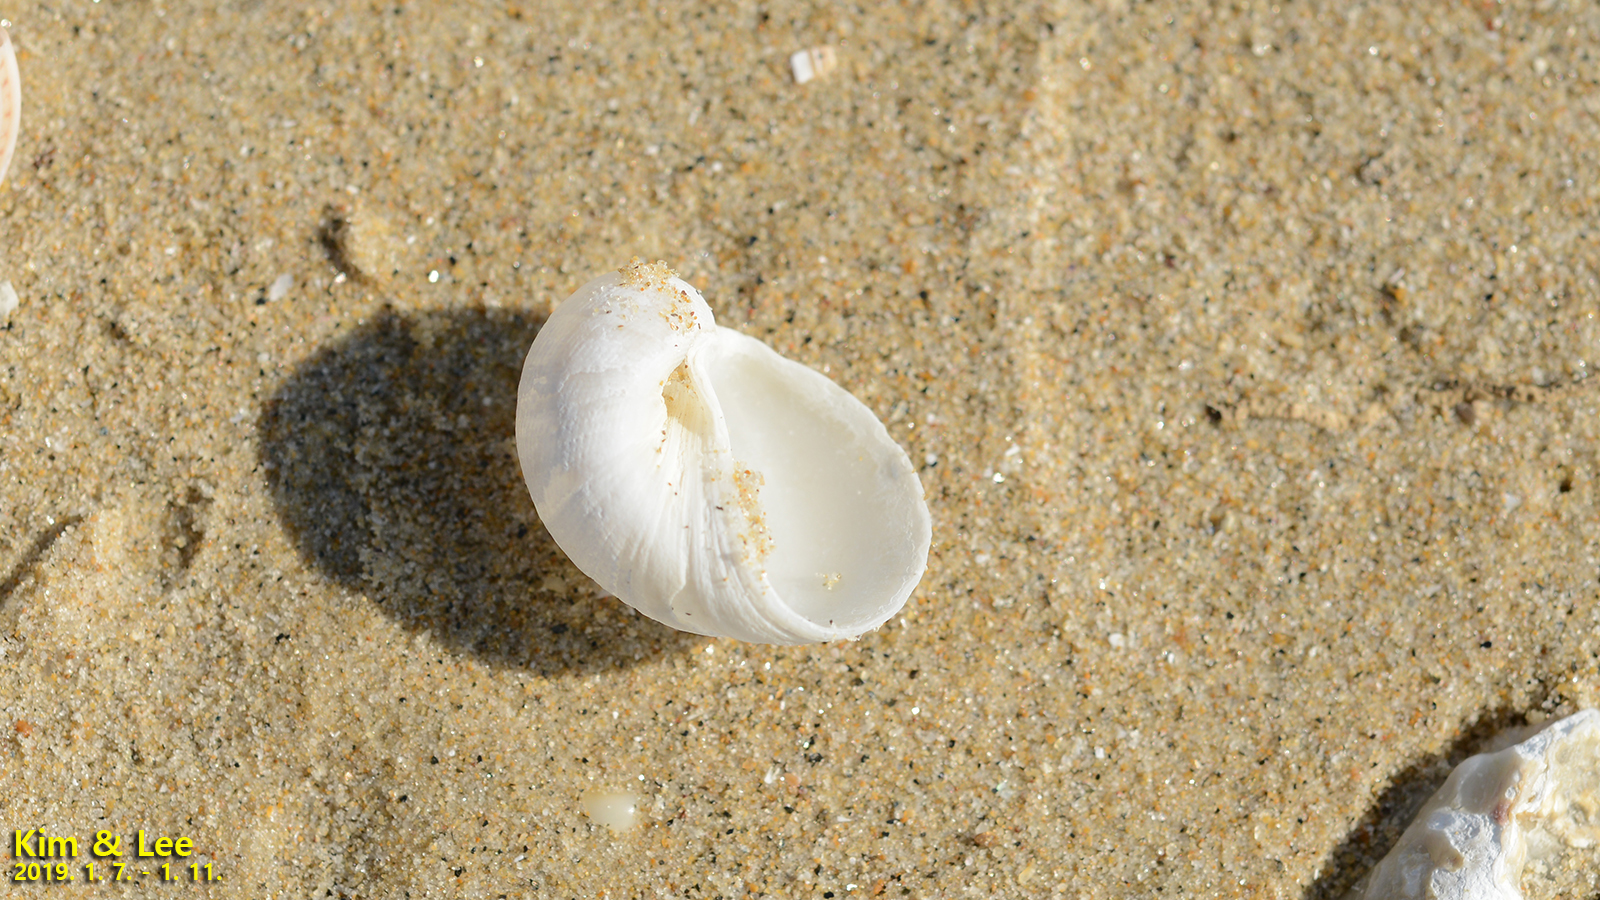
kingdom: Animalia
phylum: Mollusca
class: Gastropoda
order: Littorinimorpha
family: Naticidae
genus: Eunaticina
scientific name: Eunaticina papilla
